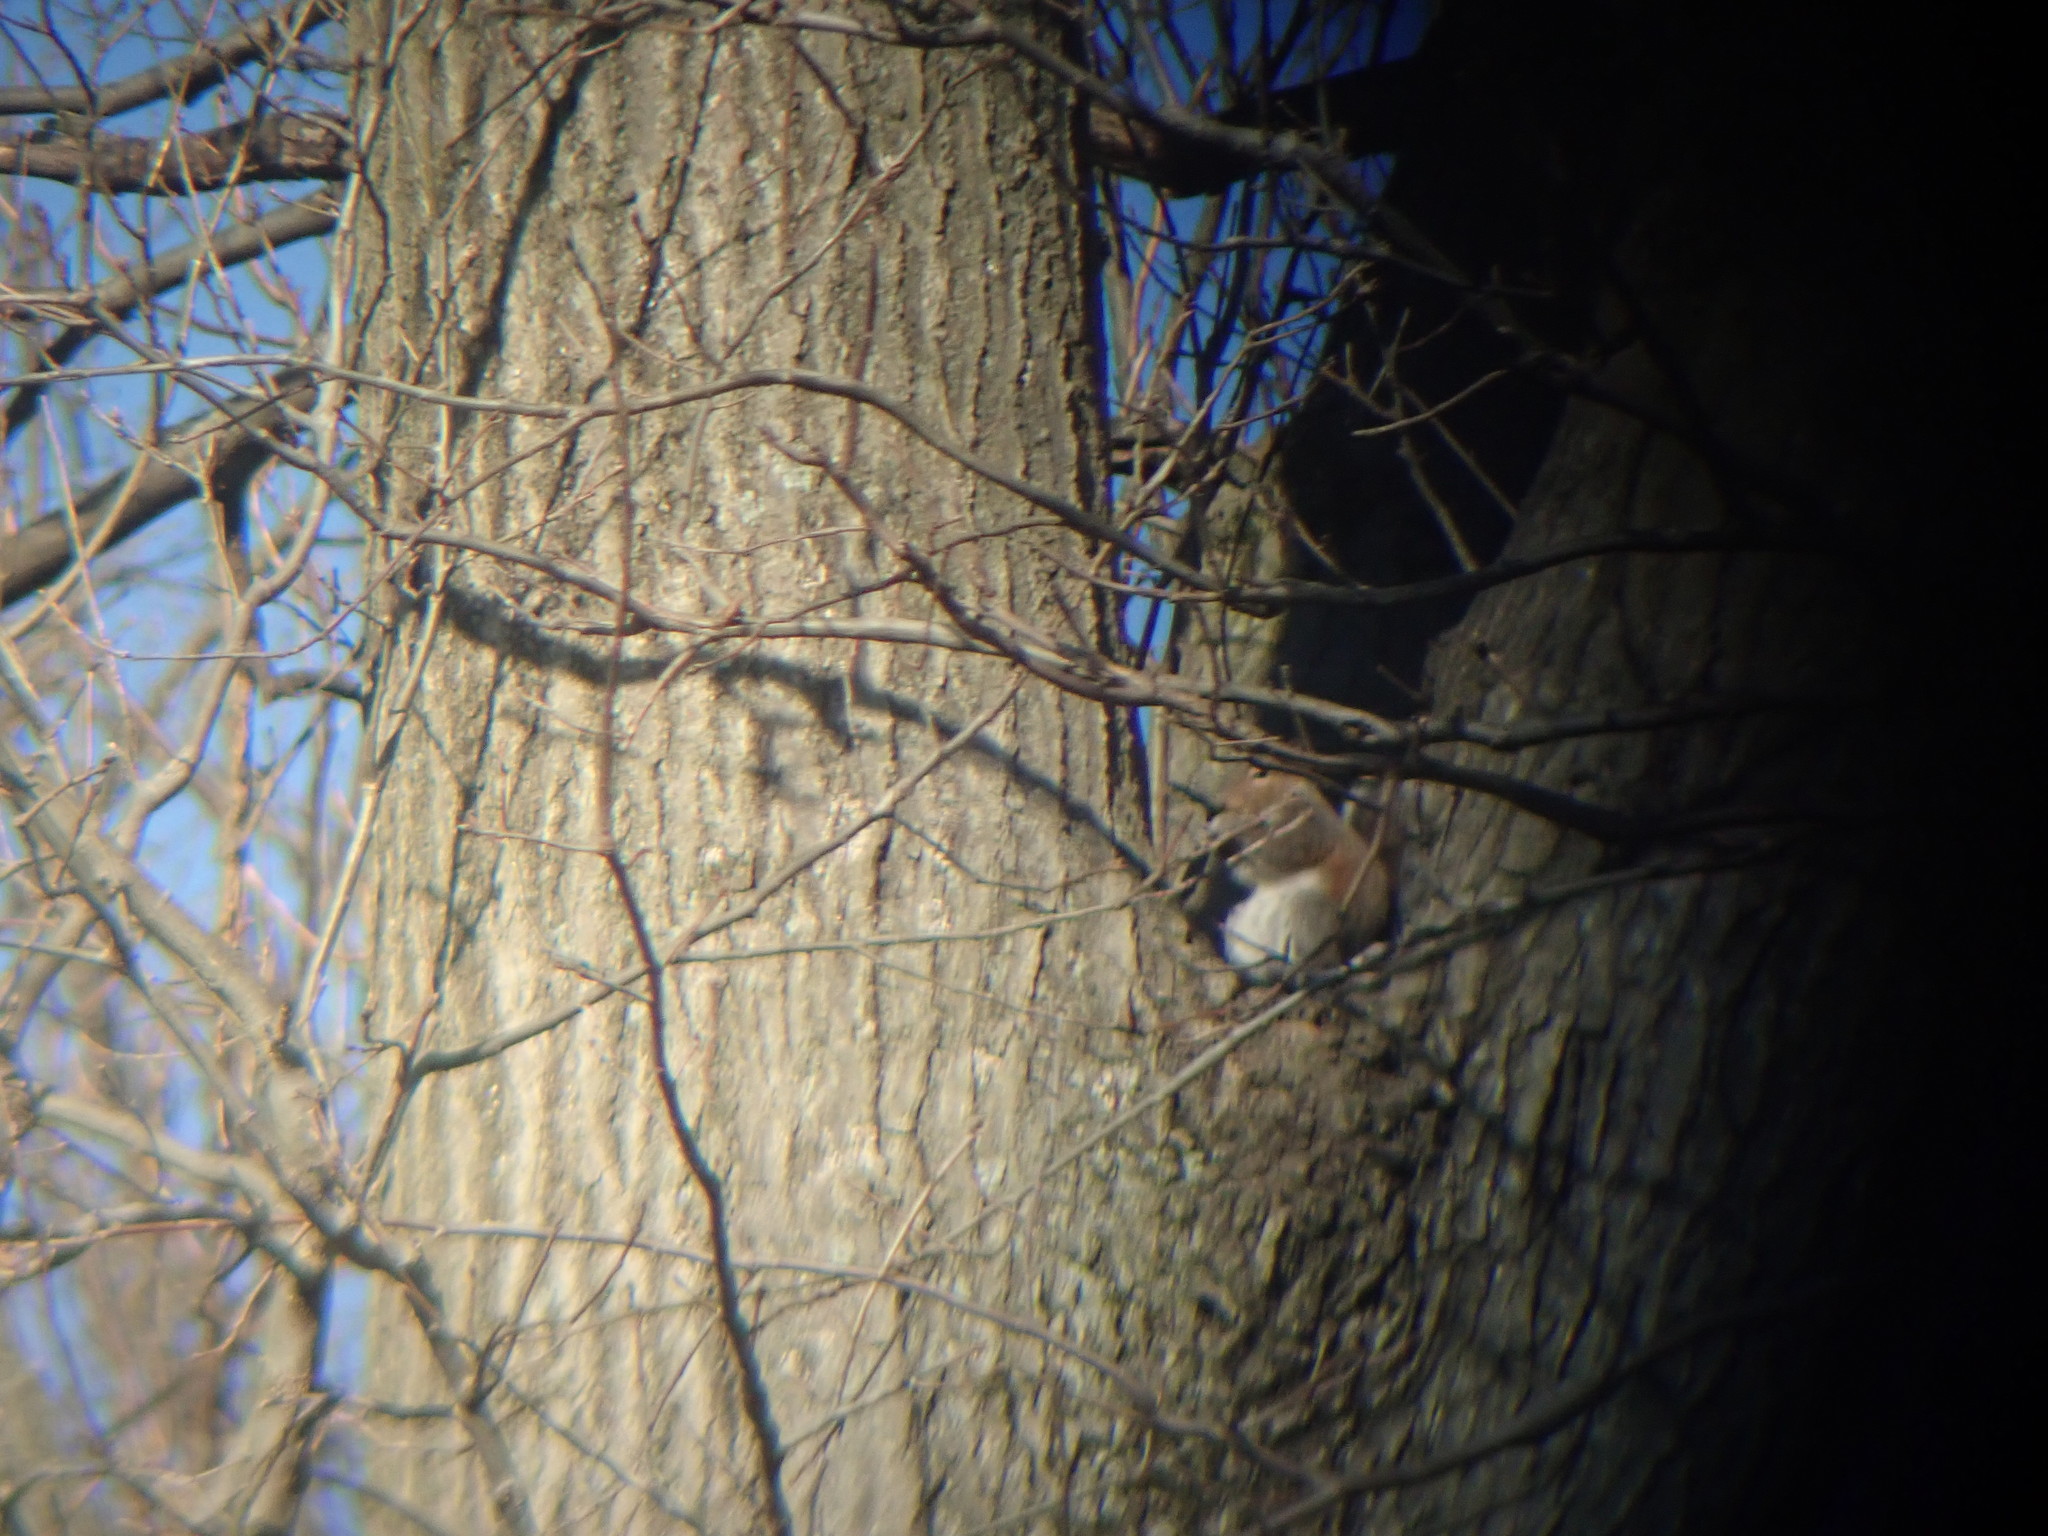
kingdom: Animalia
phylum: Chordata
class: Mammalia
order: Rodentia
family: Sciuridae
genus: Sciurus
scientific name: Sciurus carolinensis
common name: Eastern gray squirrel
